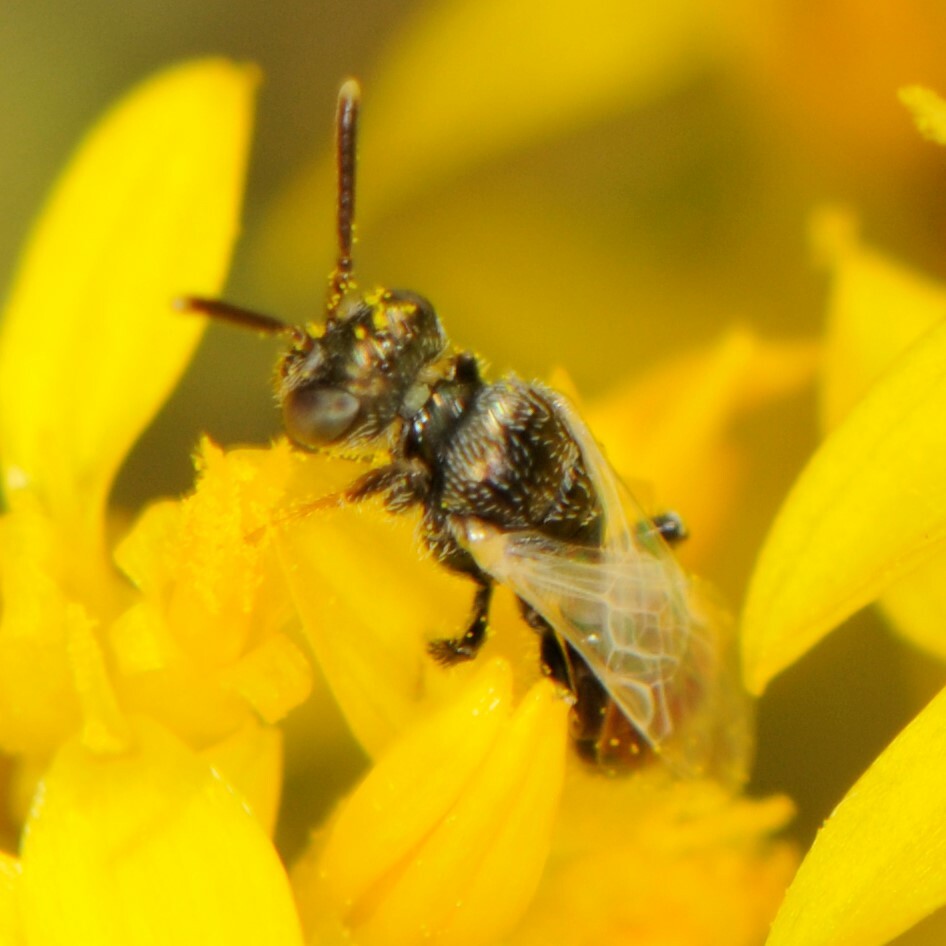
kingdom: Animalia
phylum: Arthropoda
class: Insecta
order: Hymenoptera
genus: Perditella
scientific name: Perditella
